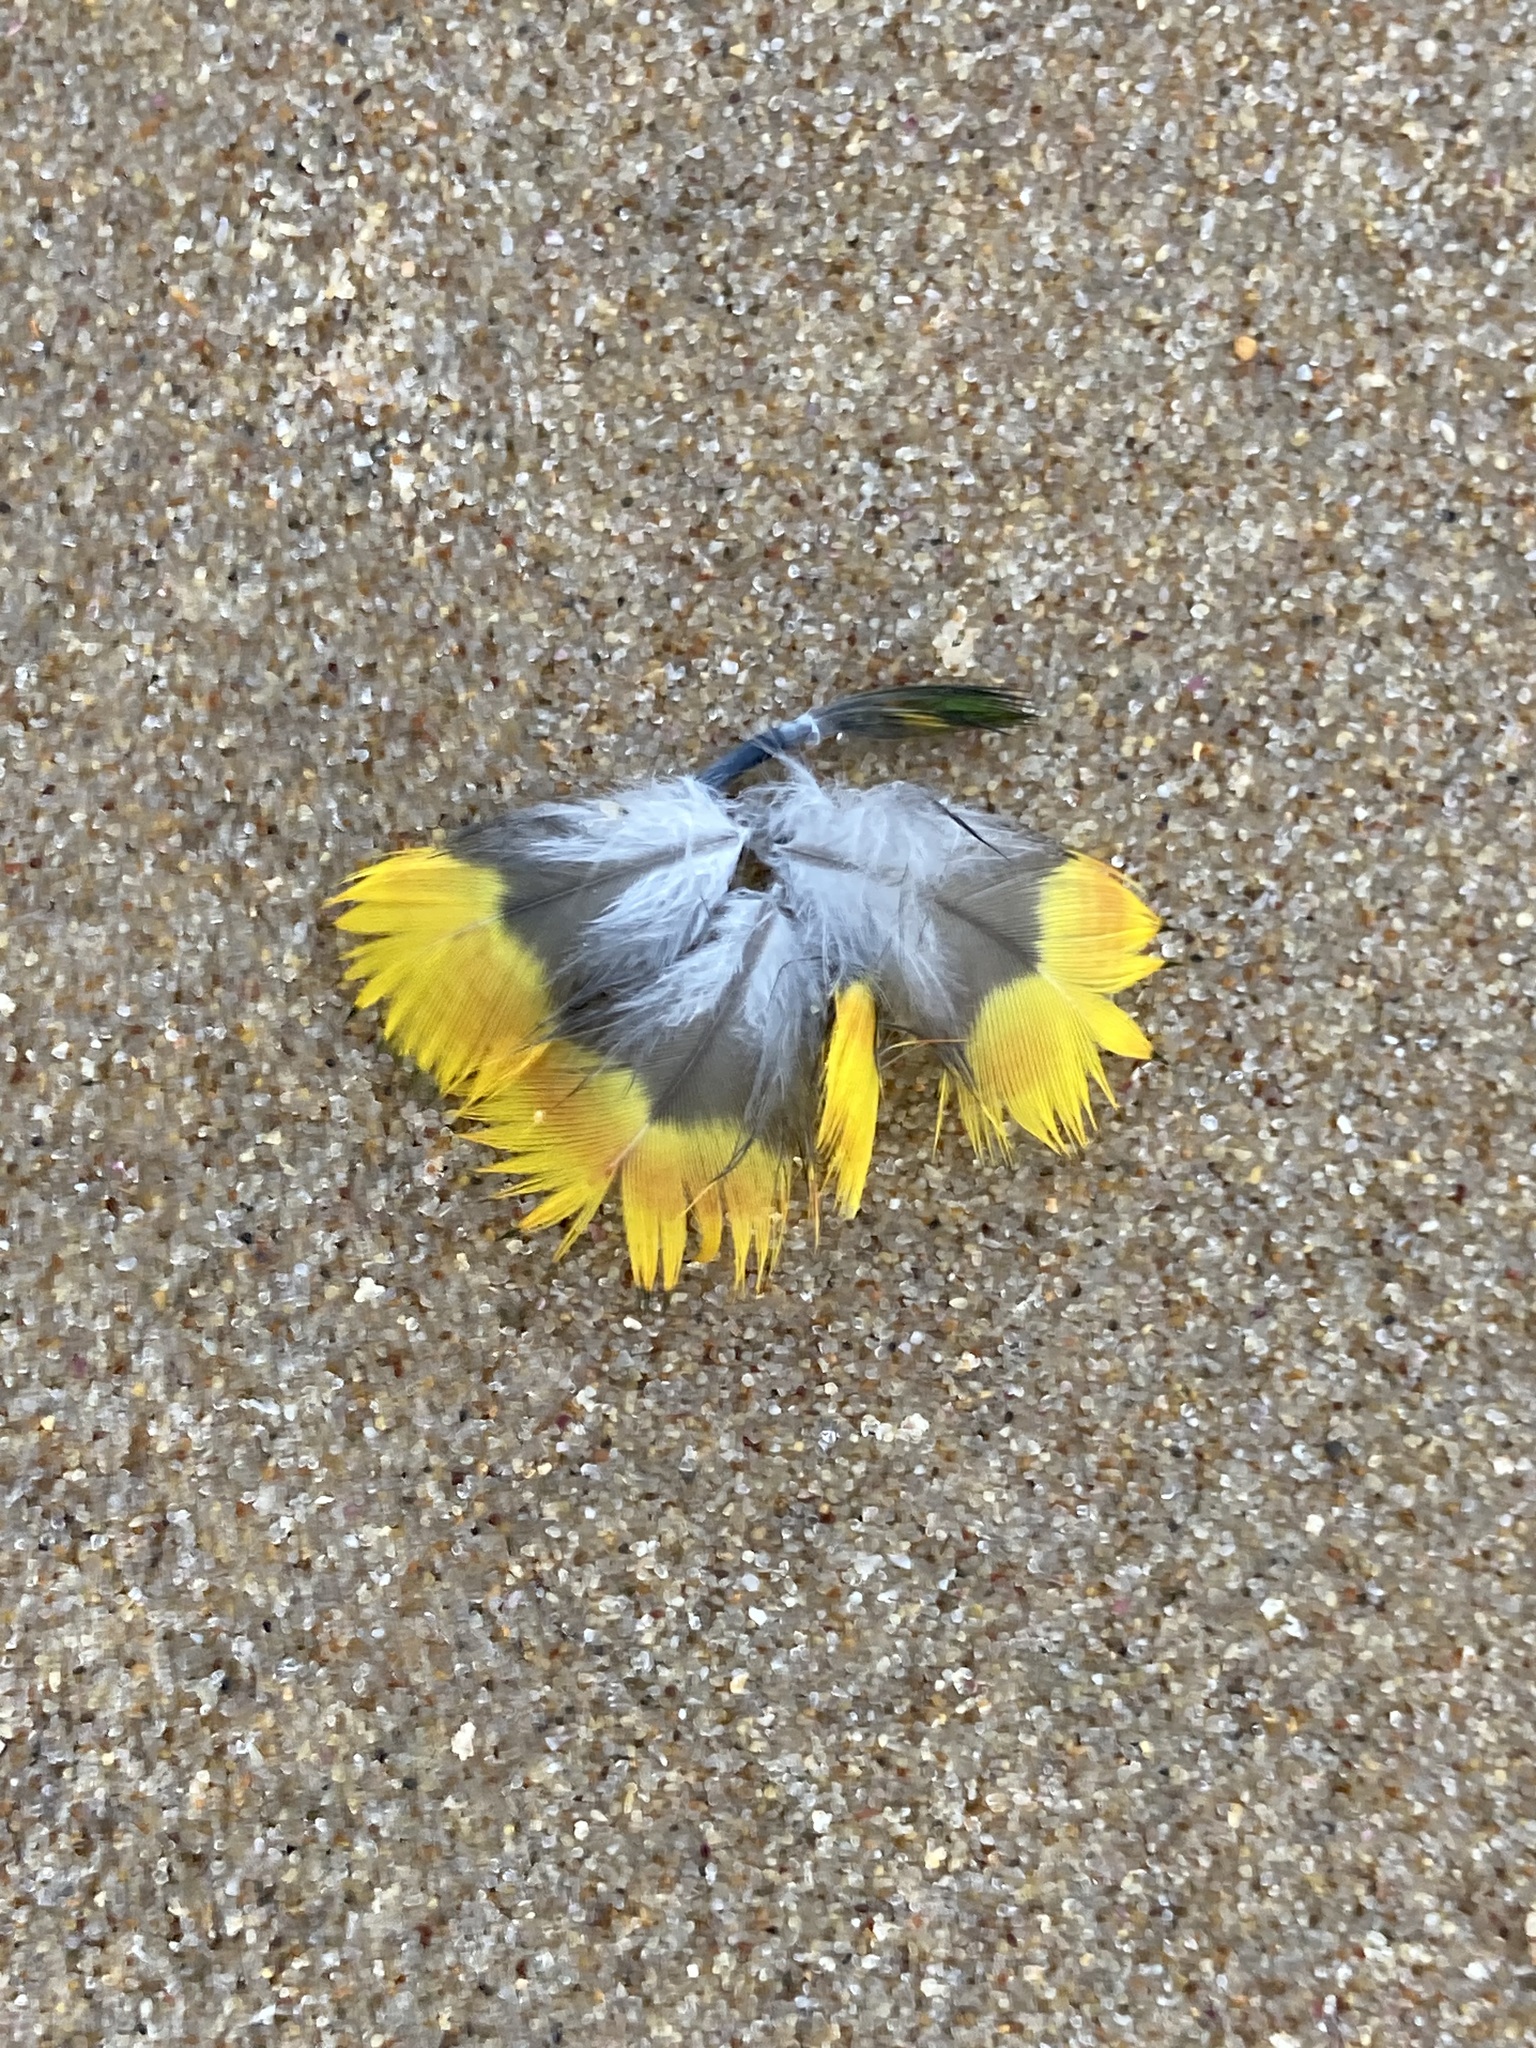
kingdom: Animalia
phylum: Chordata
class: Aves
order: Psittaciformes
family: Psittacidae
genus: Trichoglossus
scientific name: Trichoglossus haematodus
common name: Coconut lorikeet
